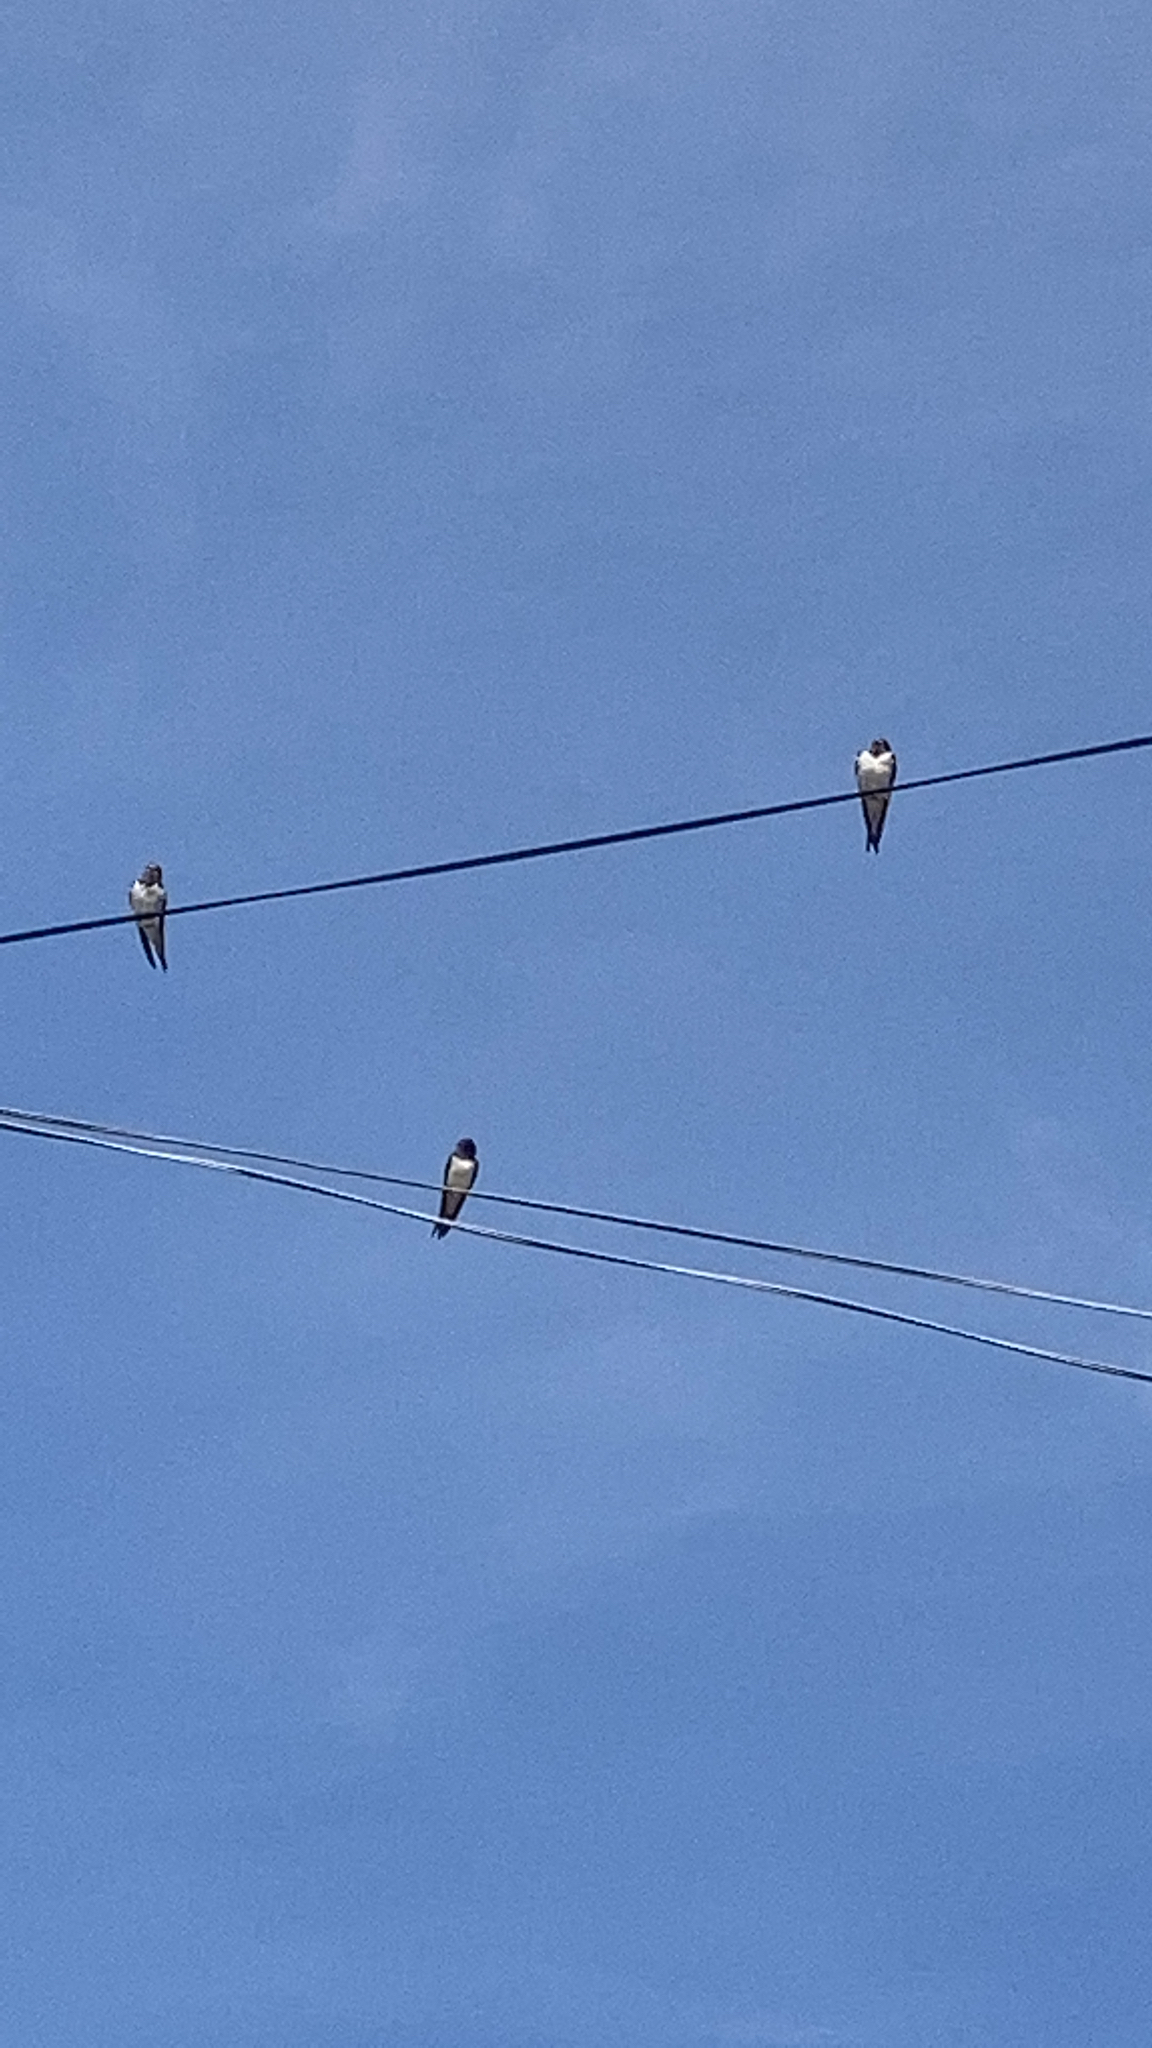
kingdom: Animalia
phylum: Chordata
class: Aves
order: Passeriformes
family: Hirundinidae
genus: Hirundo
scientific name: Hirundo rustica
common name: Barn swallow
